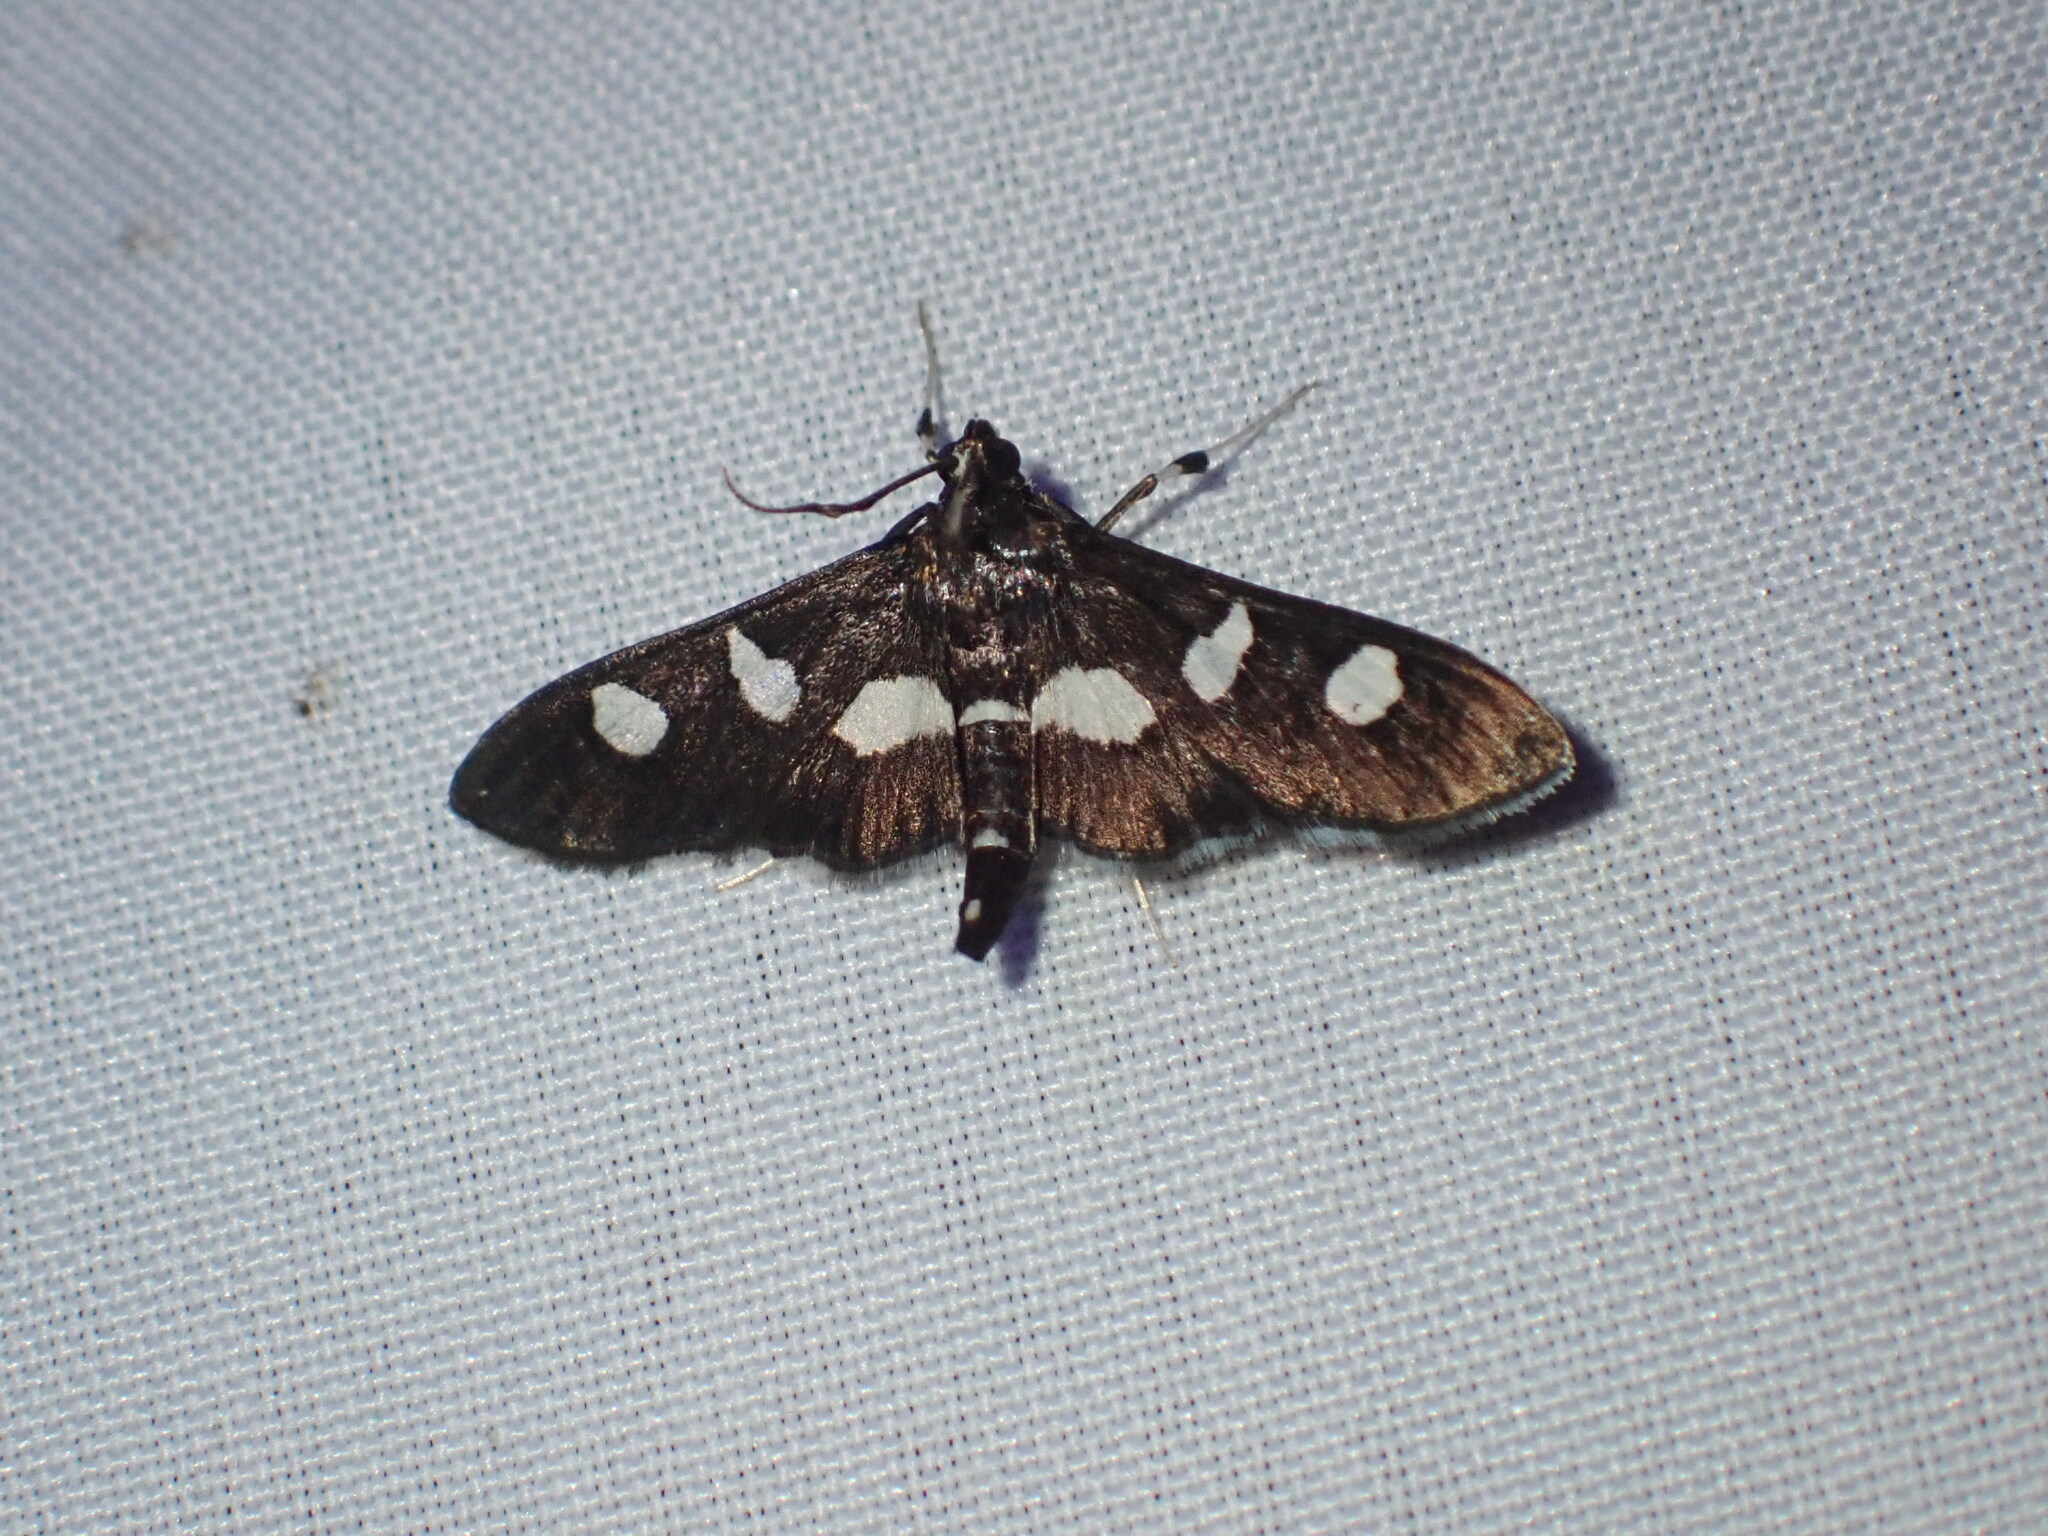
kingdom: Animalia
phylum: Arthropoda
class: Insecta
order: Lepidoptera
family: Crambidae
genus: Desmia
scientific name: Desmia
